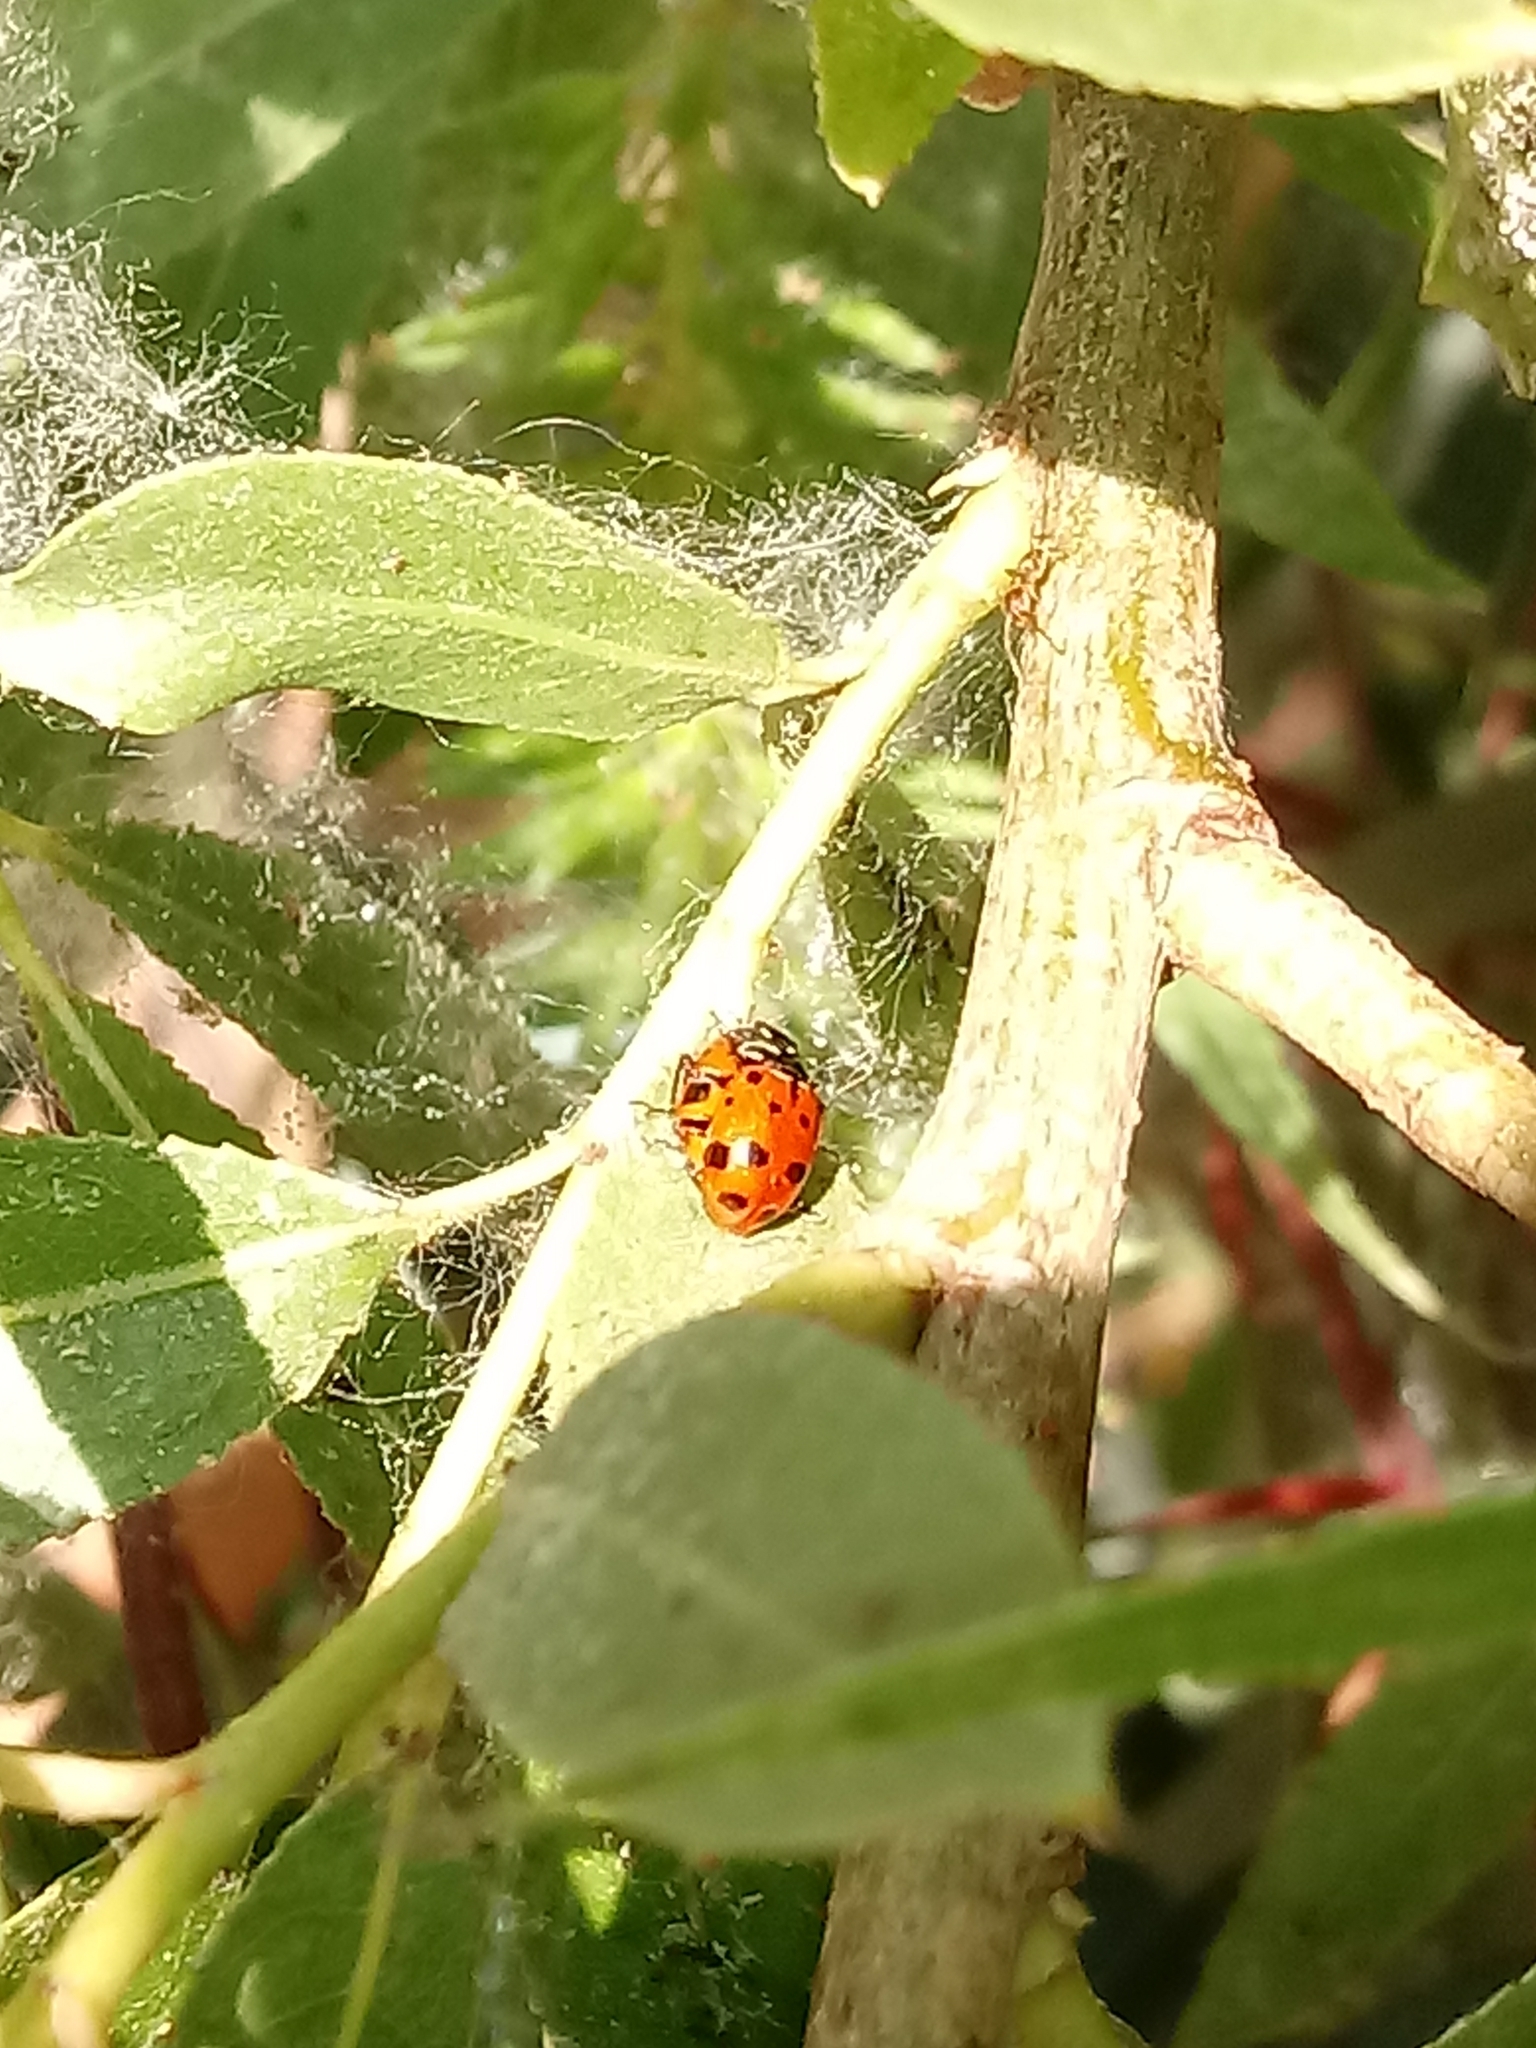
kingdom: Animalia
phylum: Arthropoda
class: Insecta
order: Coleoptera
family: Coccinellidae
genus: Hippodamia
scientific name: Hippodamia convergens
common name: Convergent lady beetle
